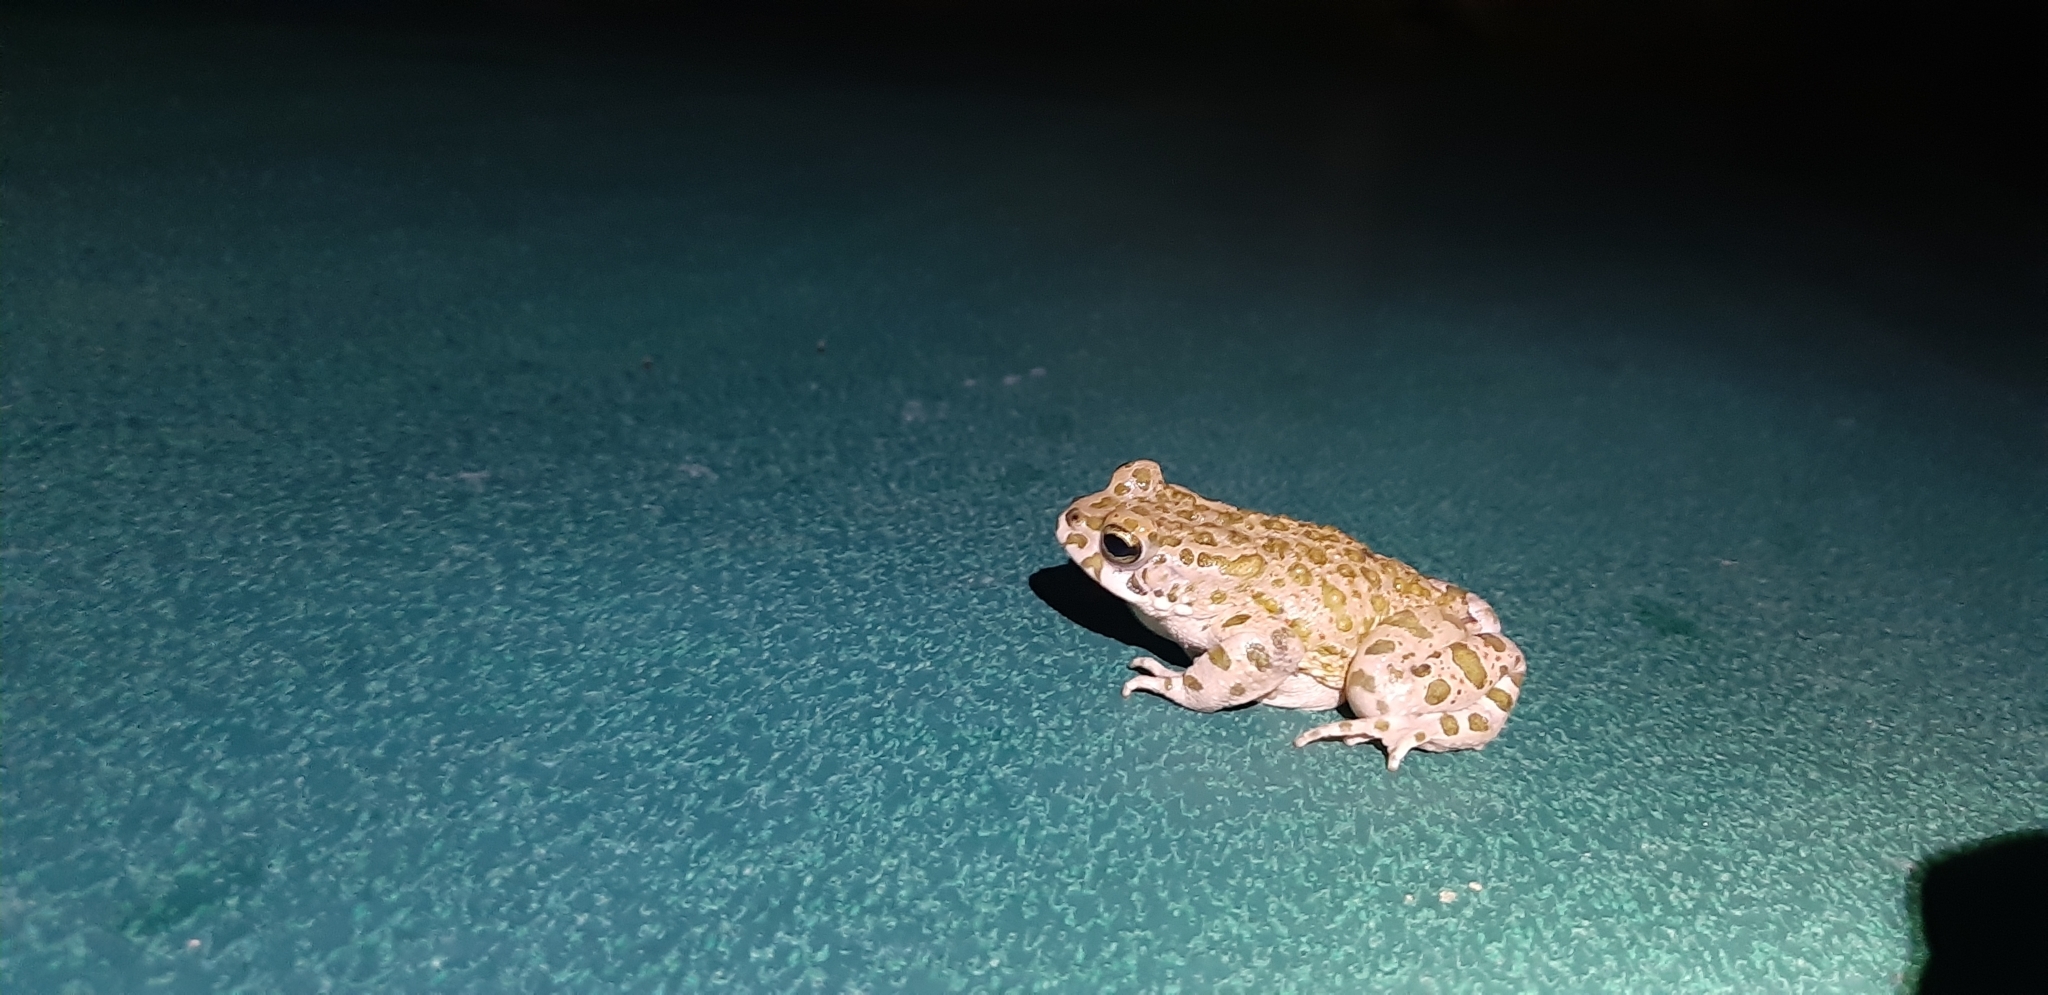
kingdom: Animalia
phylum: Chordata
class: Amphibia
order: Anura
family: Bufonidae
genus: Bufotes
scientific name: Bufotes viridis
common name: European green toad
